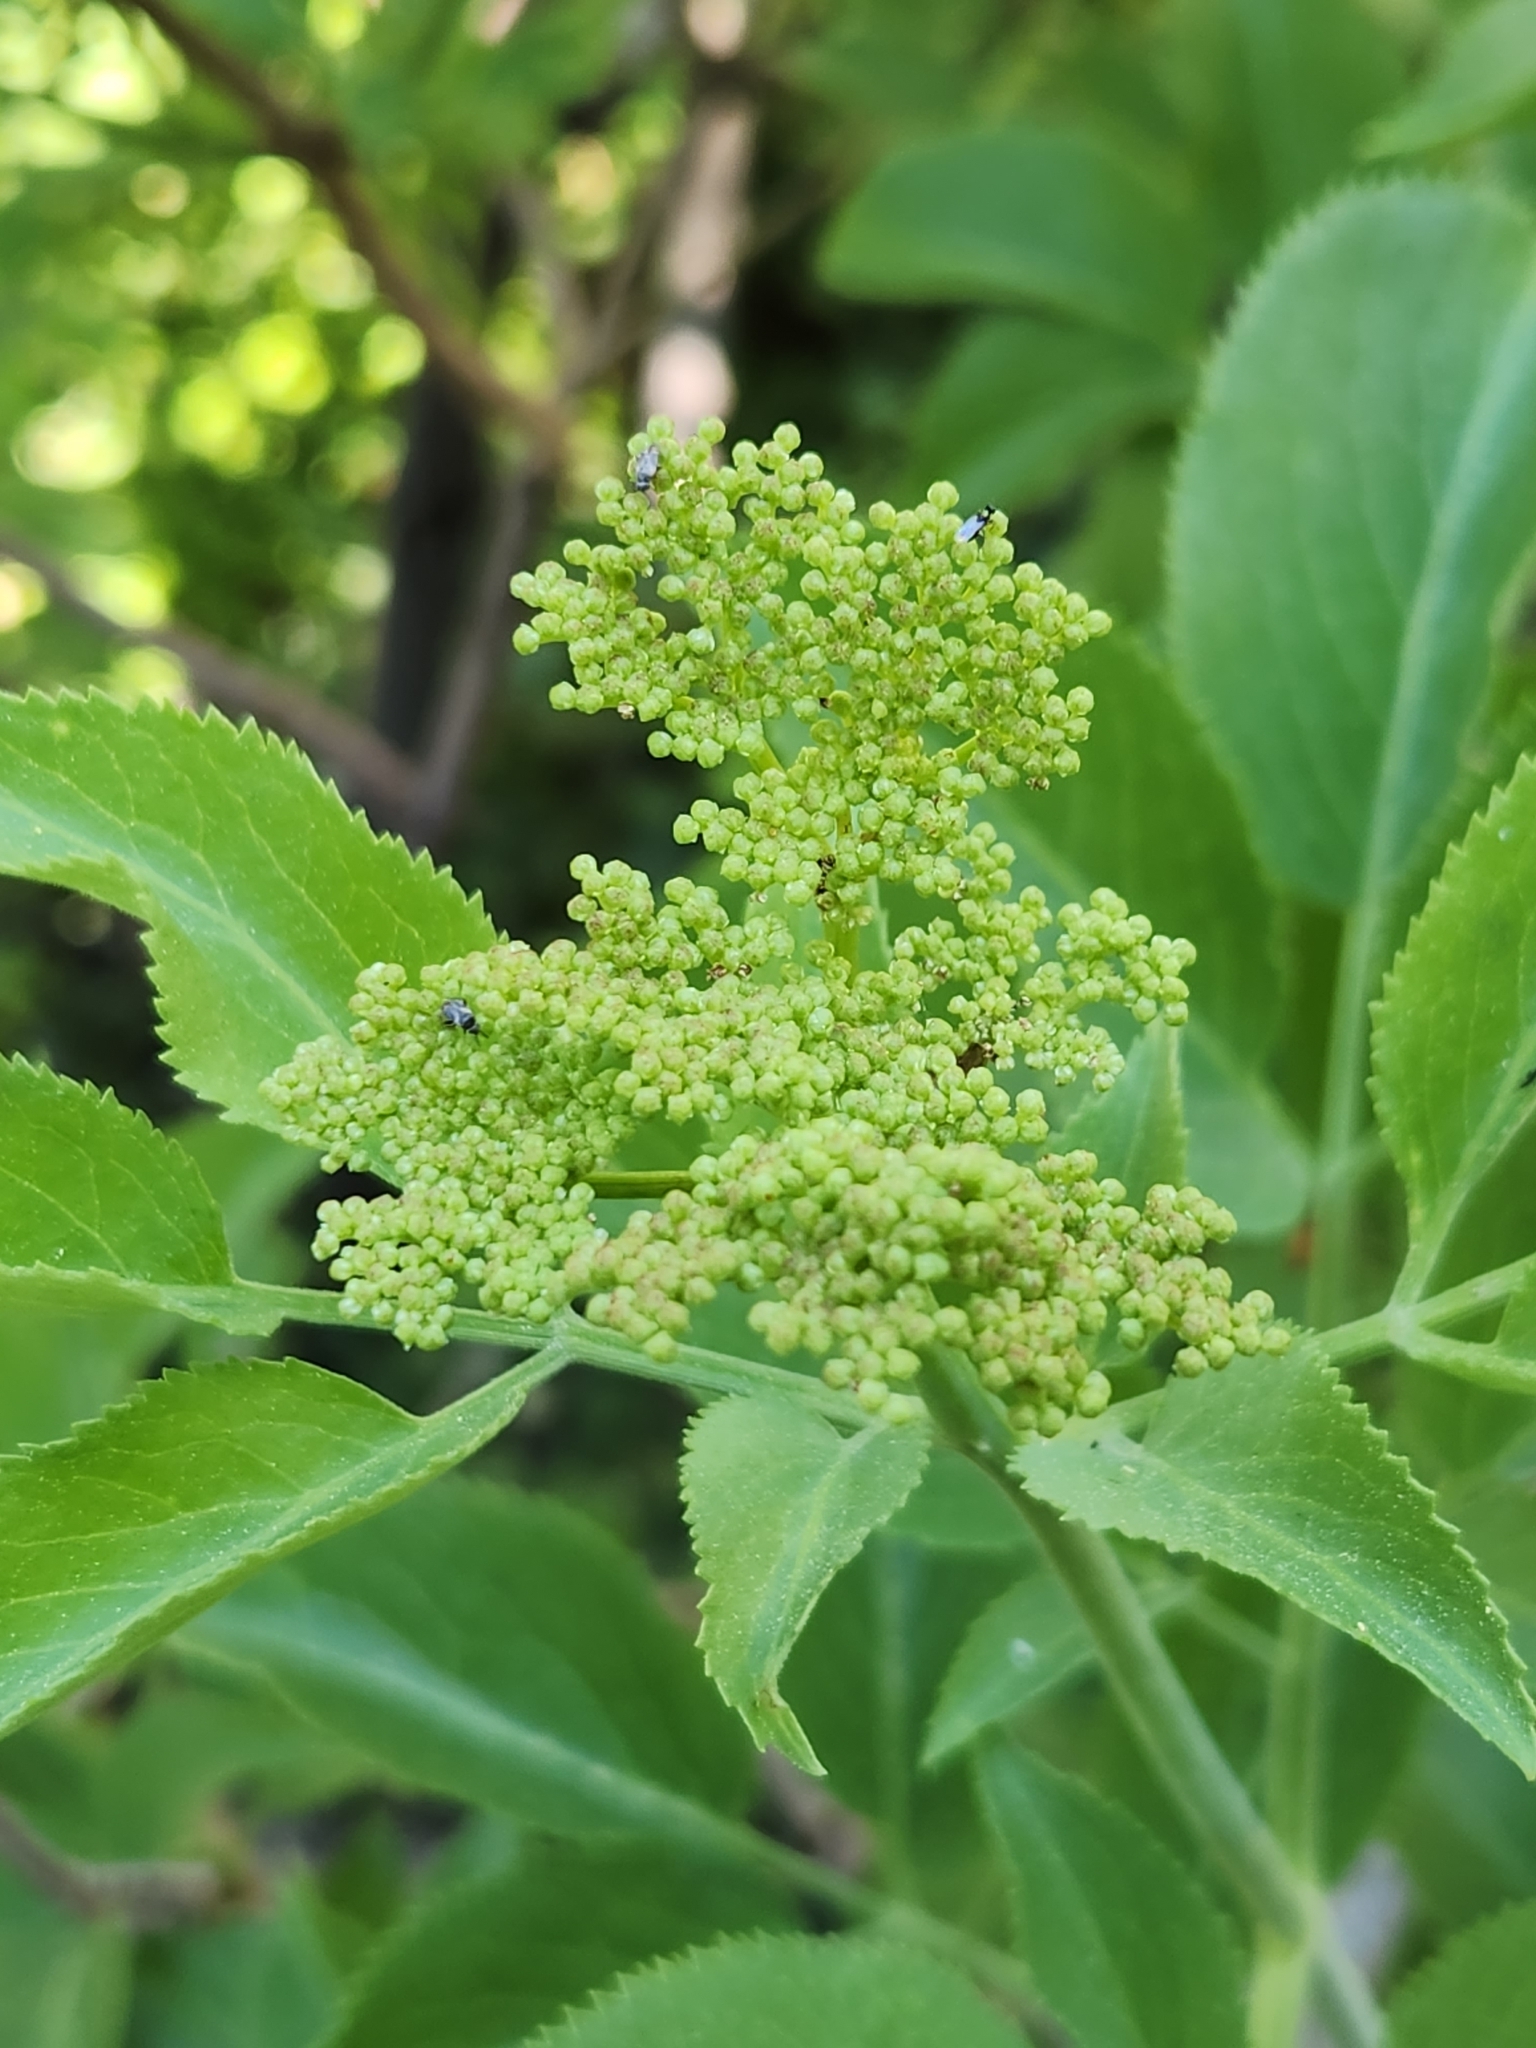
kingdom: Plantae
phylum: Tracheophyta
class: Magnoliopsida
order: Dipsacales
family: Viburnaceae
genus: Sambucus
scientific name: Sambucus cerulea
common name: Blue elder
